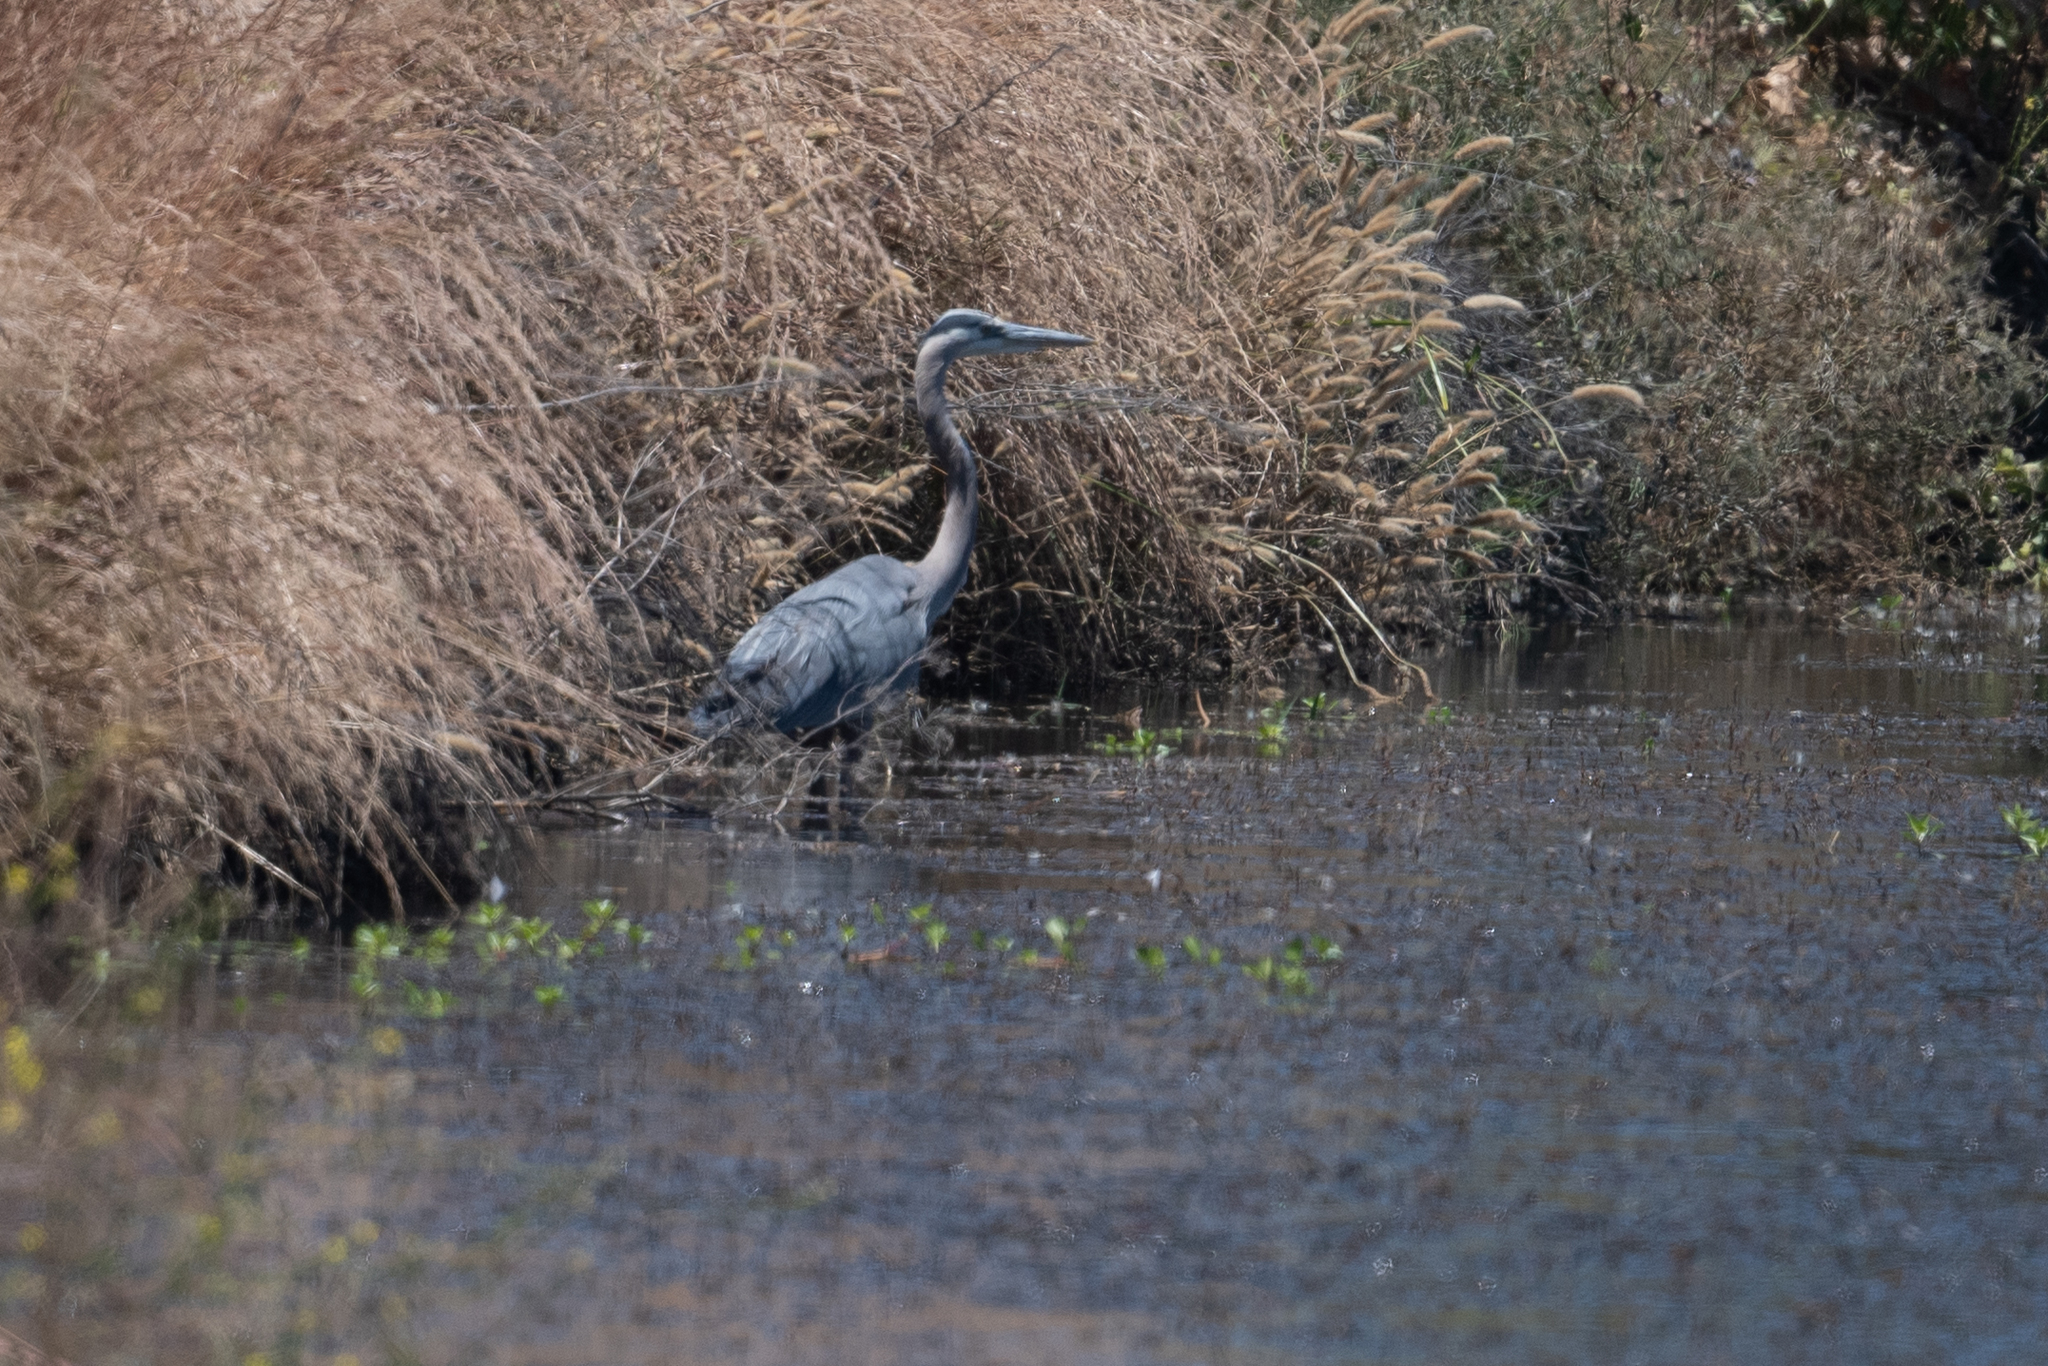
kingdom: Animalia
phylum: Chordata
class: Aves
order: Pelecaniformes
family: Ardeidae
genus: Ardea
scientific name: Ardea herodias
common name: Great blue heron
